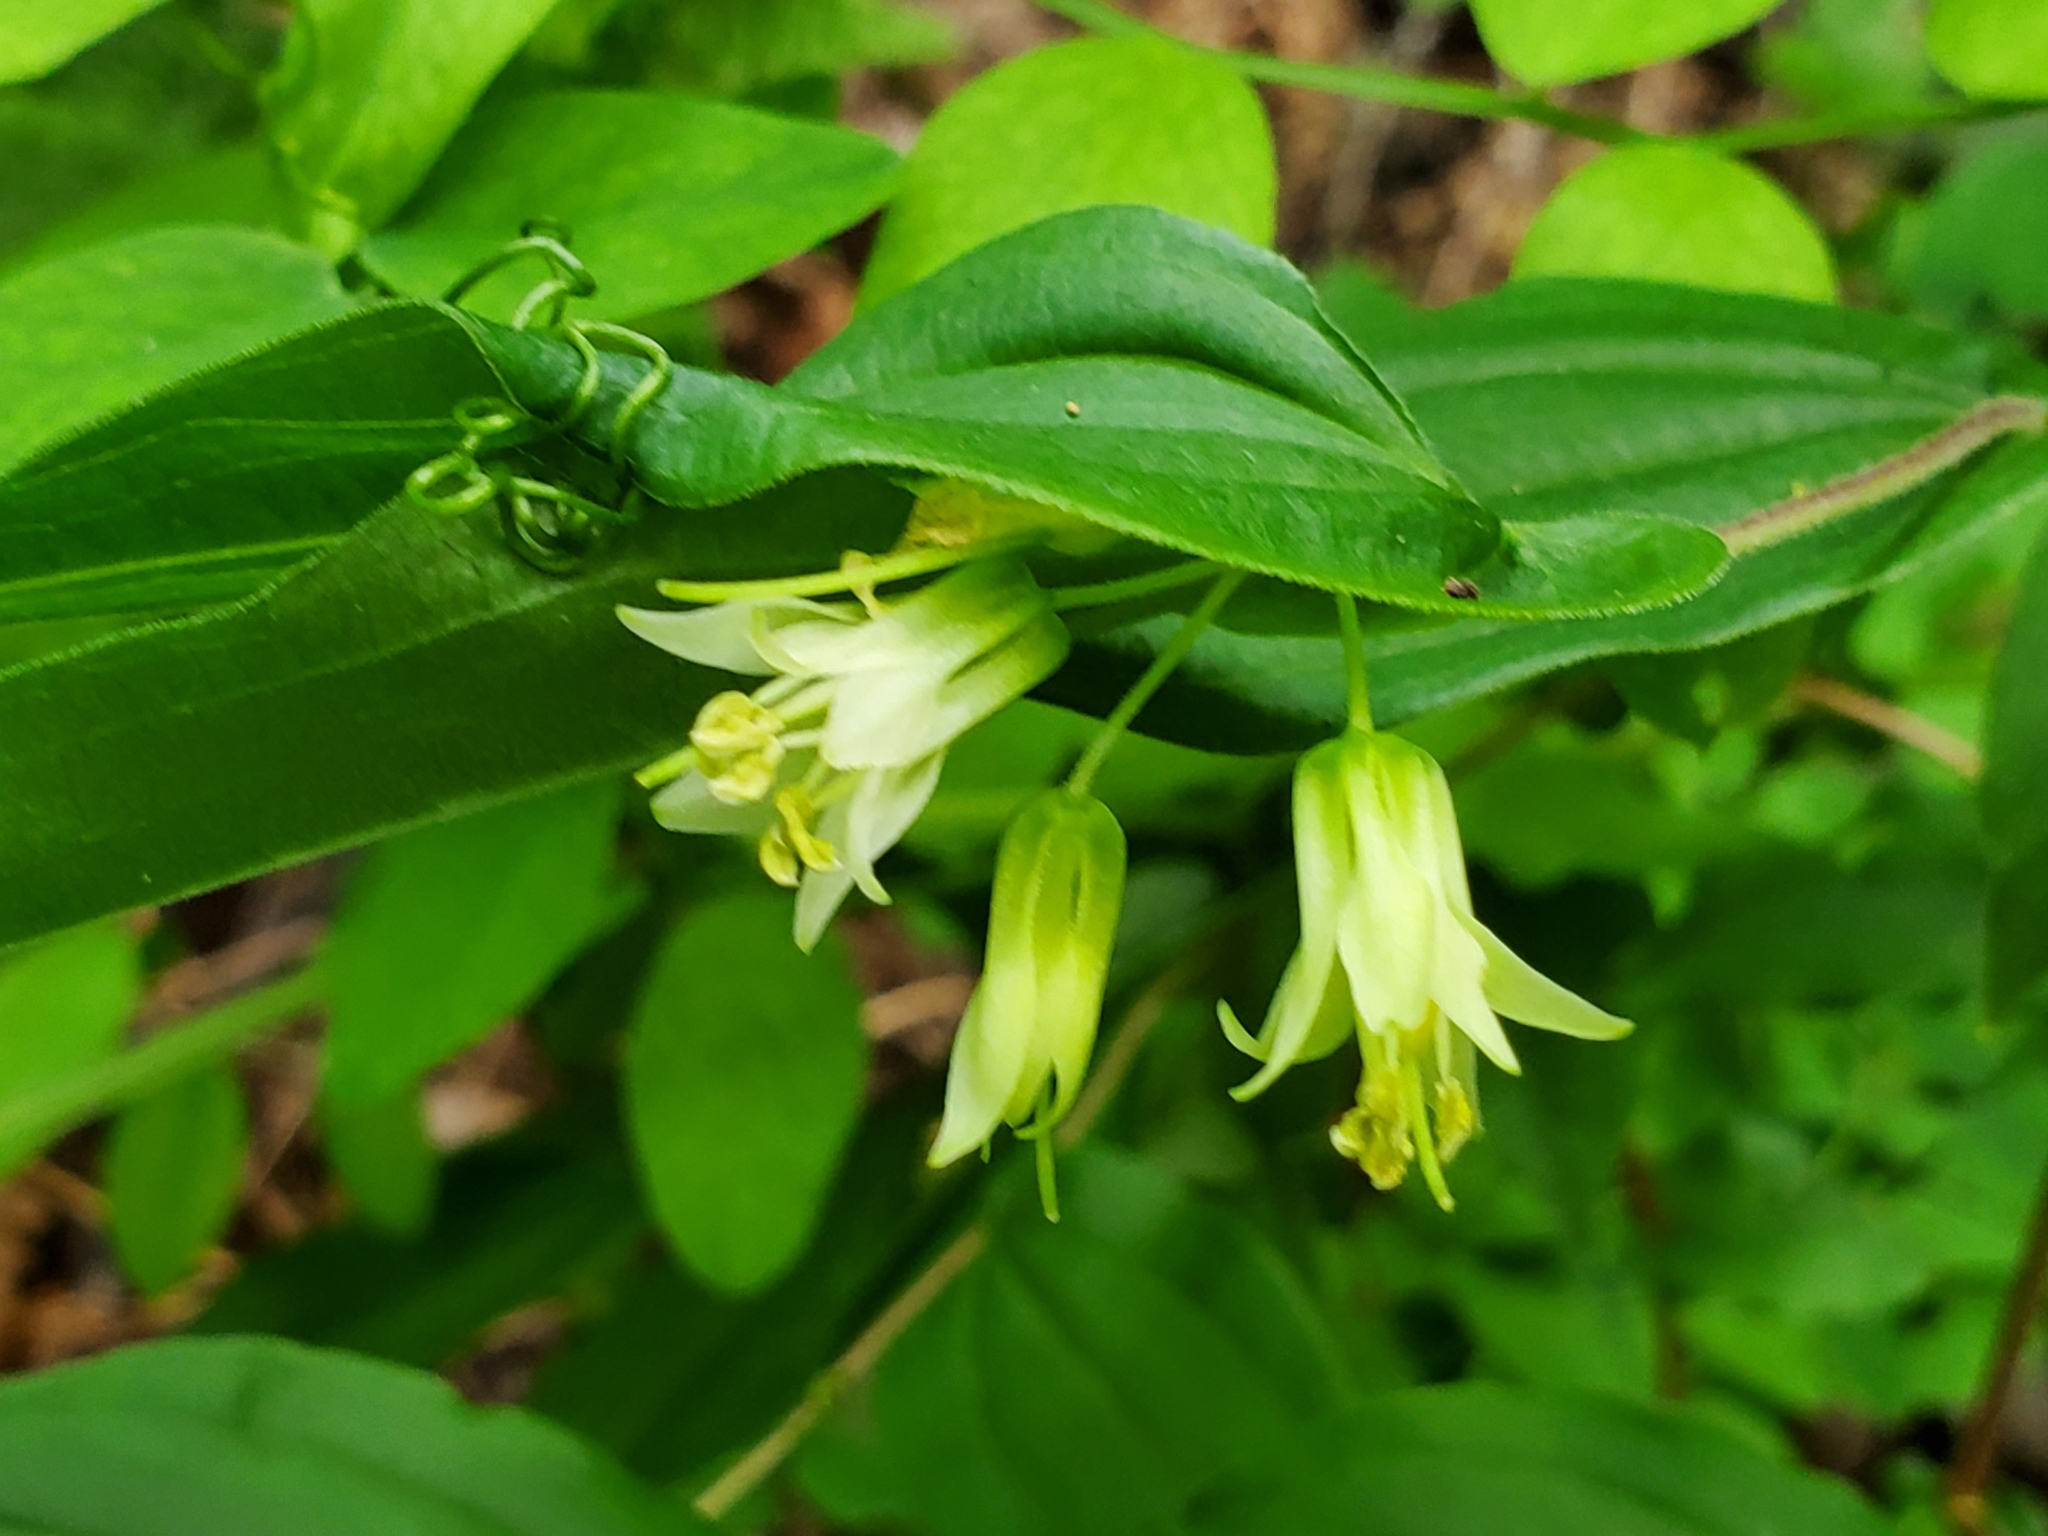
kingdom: Plantae
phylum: Tracheophyta
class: Liliopsida
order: Liliales
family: Liliaceae
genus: Prosartes
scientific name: Prosartes hookeri
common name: Fairy-bells
